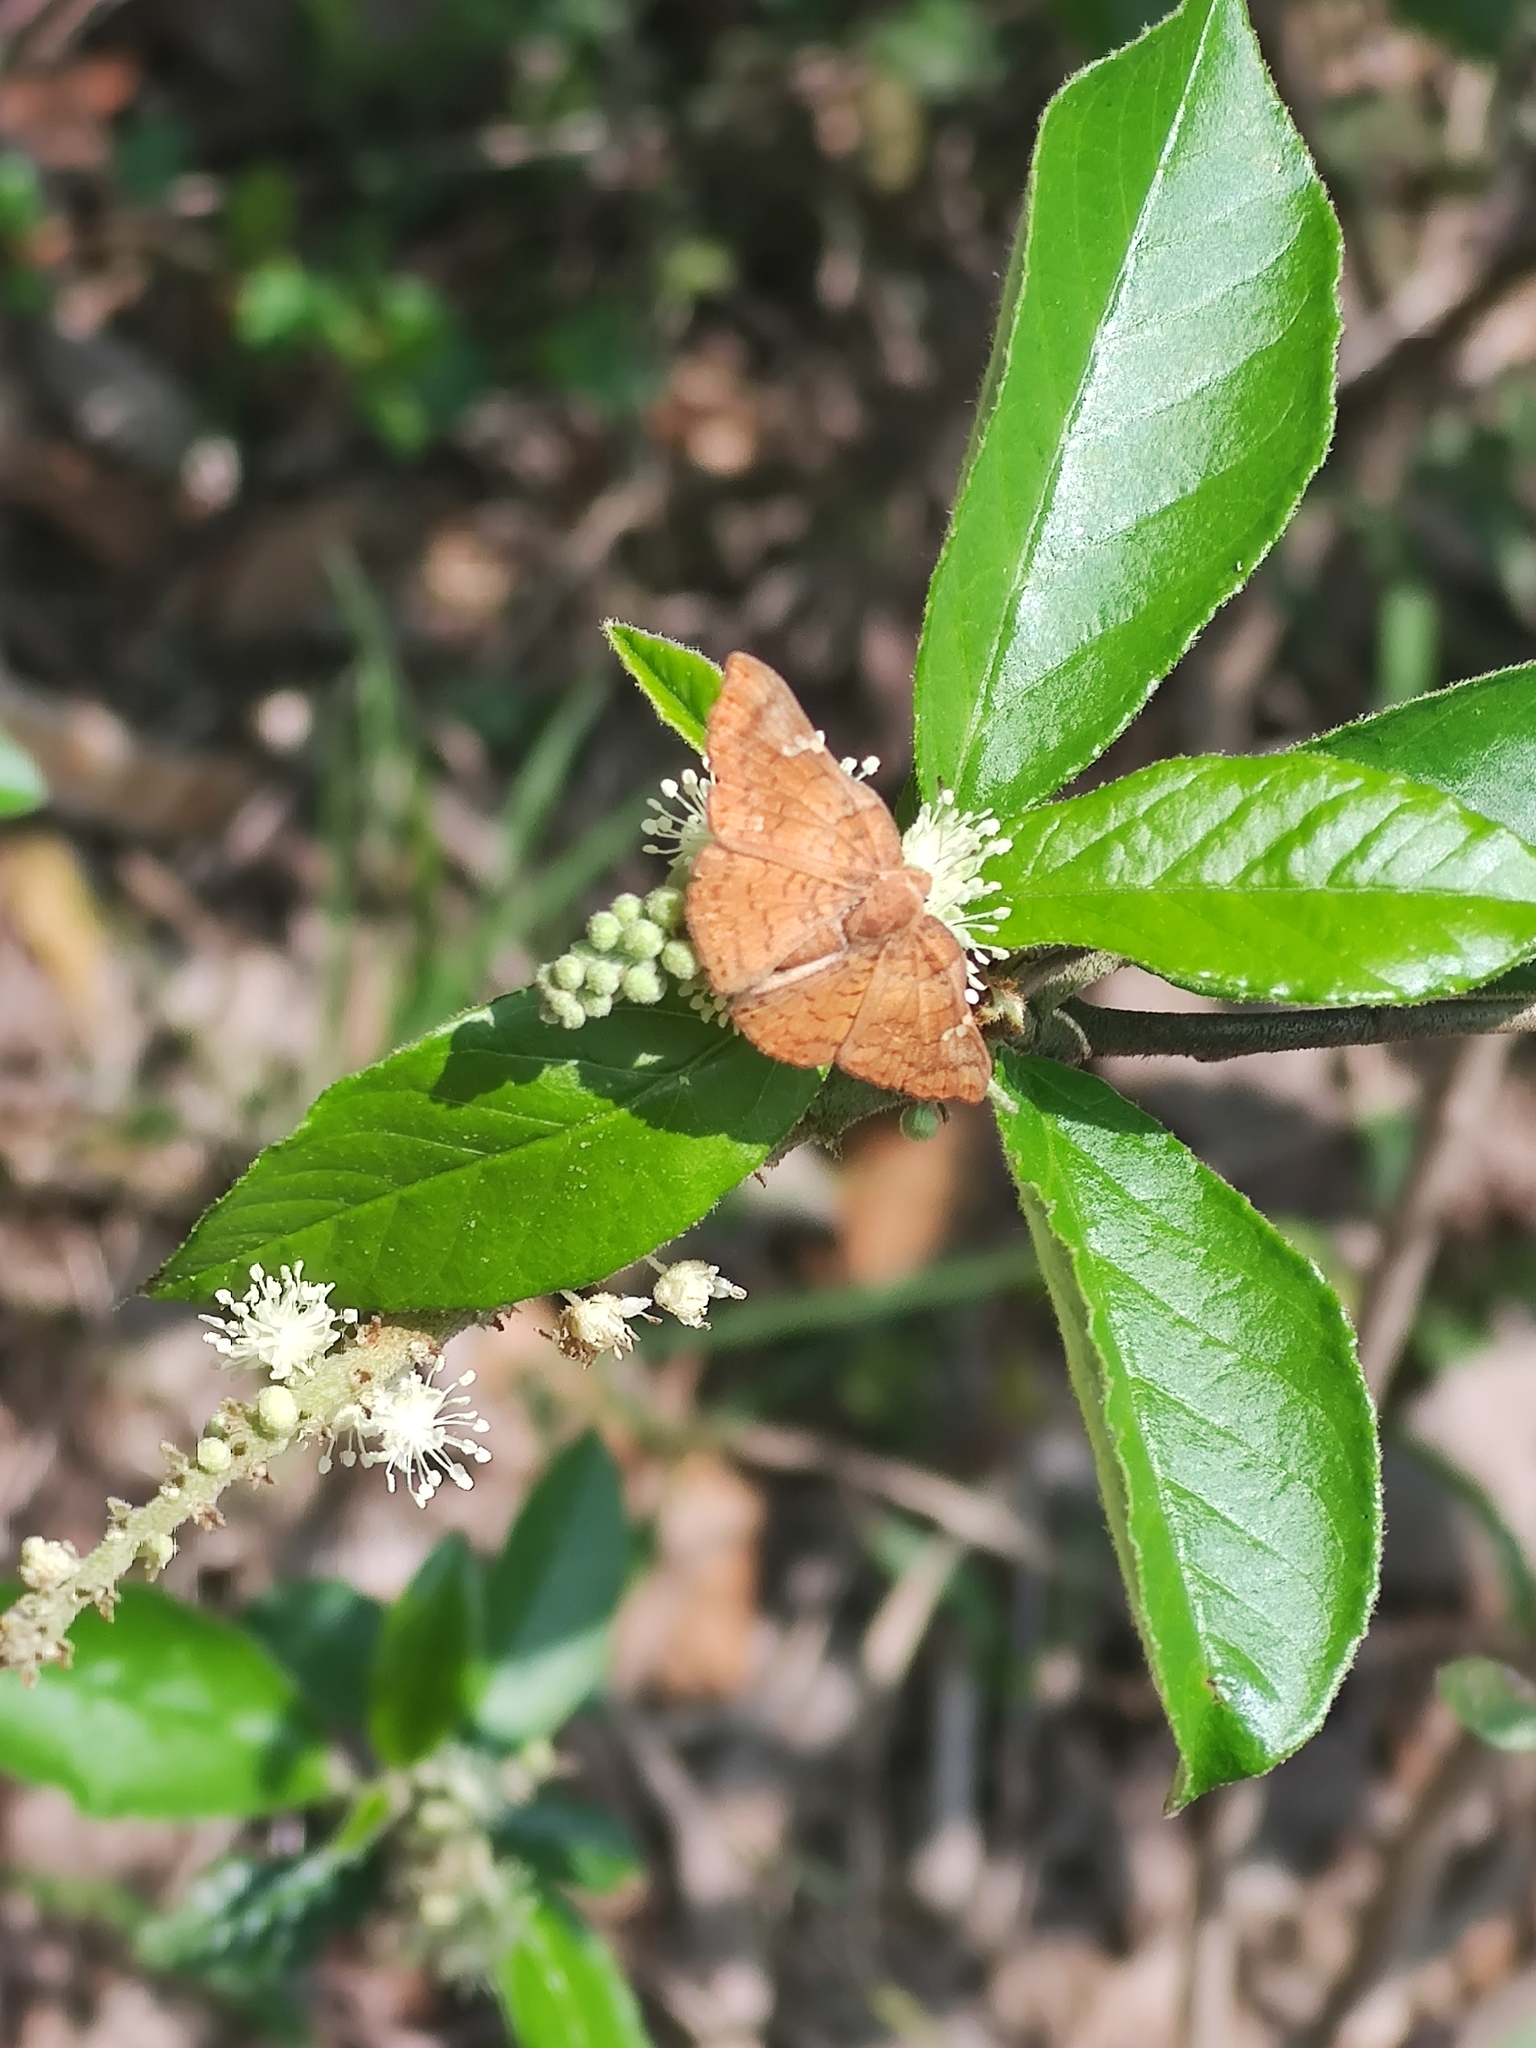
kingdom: Animalia
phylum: Arthropoda
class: Insecta
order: Lepidoptera
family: Riodinidae
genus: Curvie
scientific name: Curvie emesia
